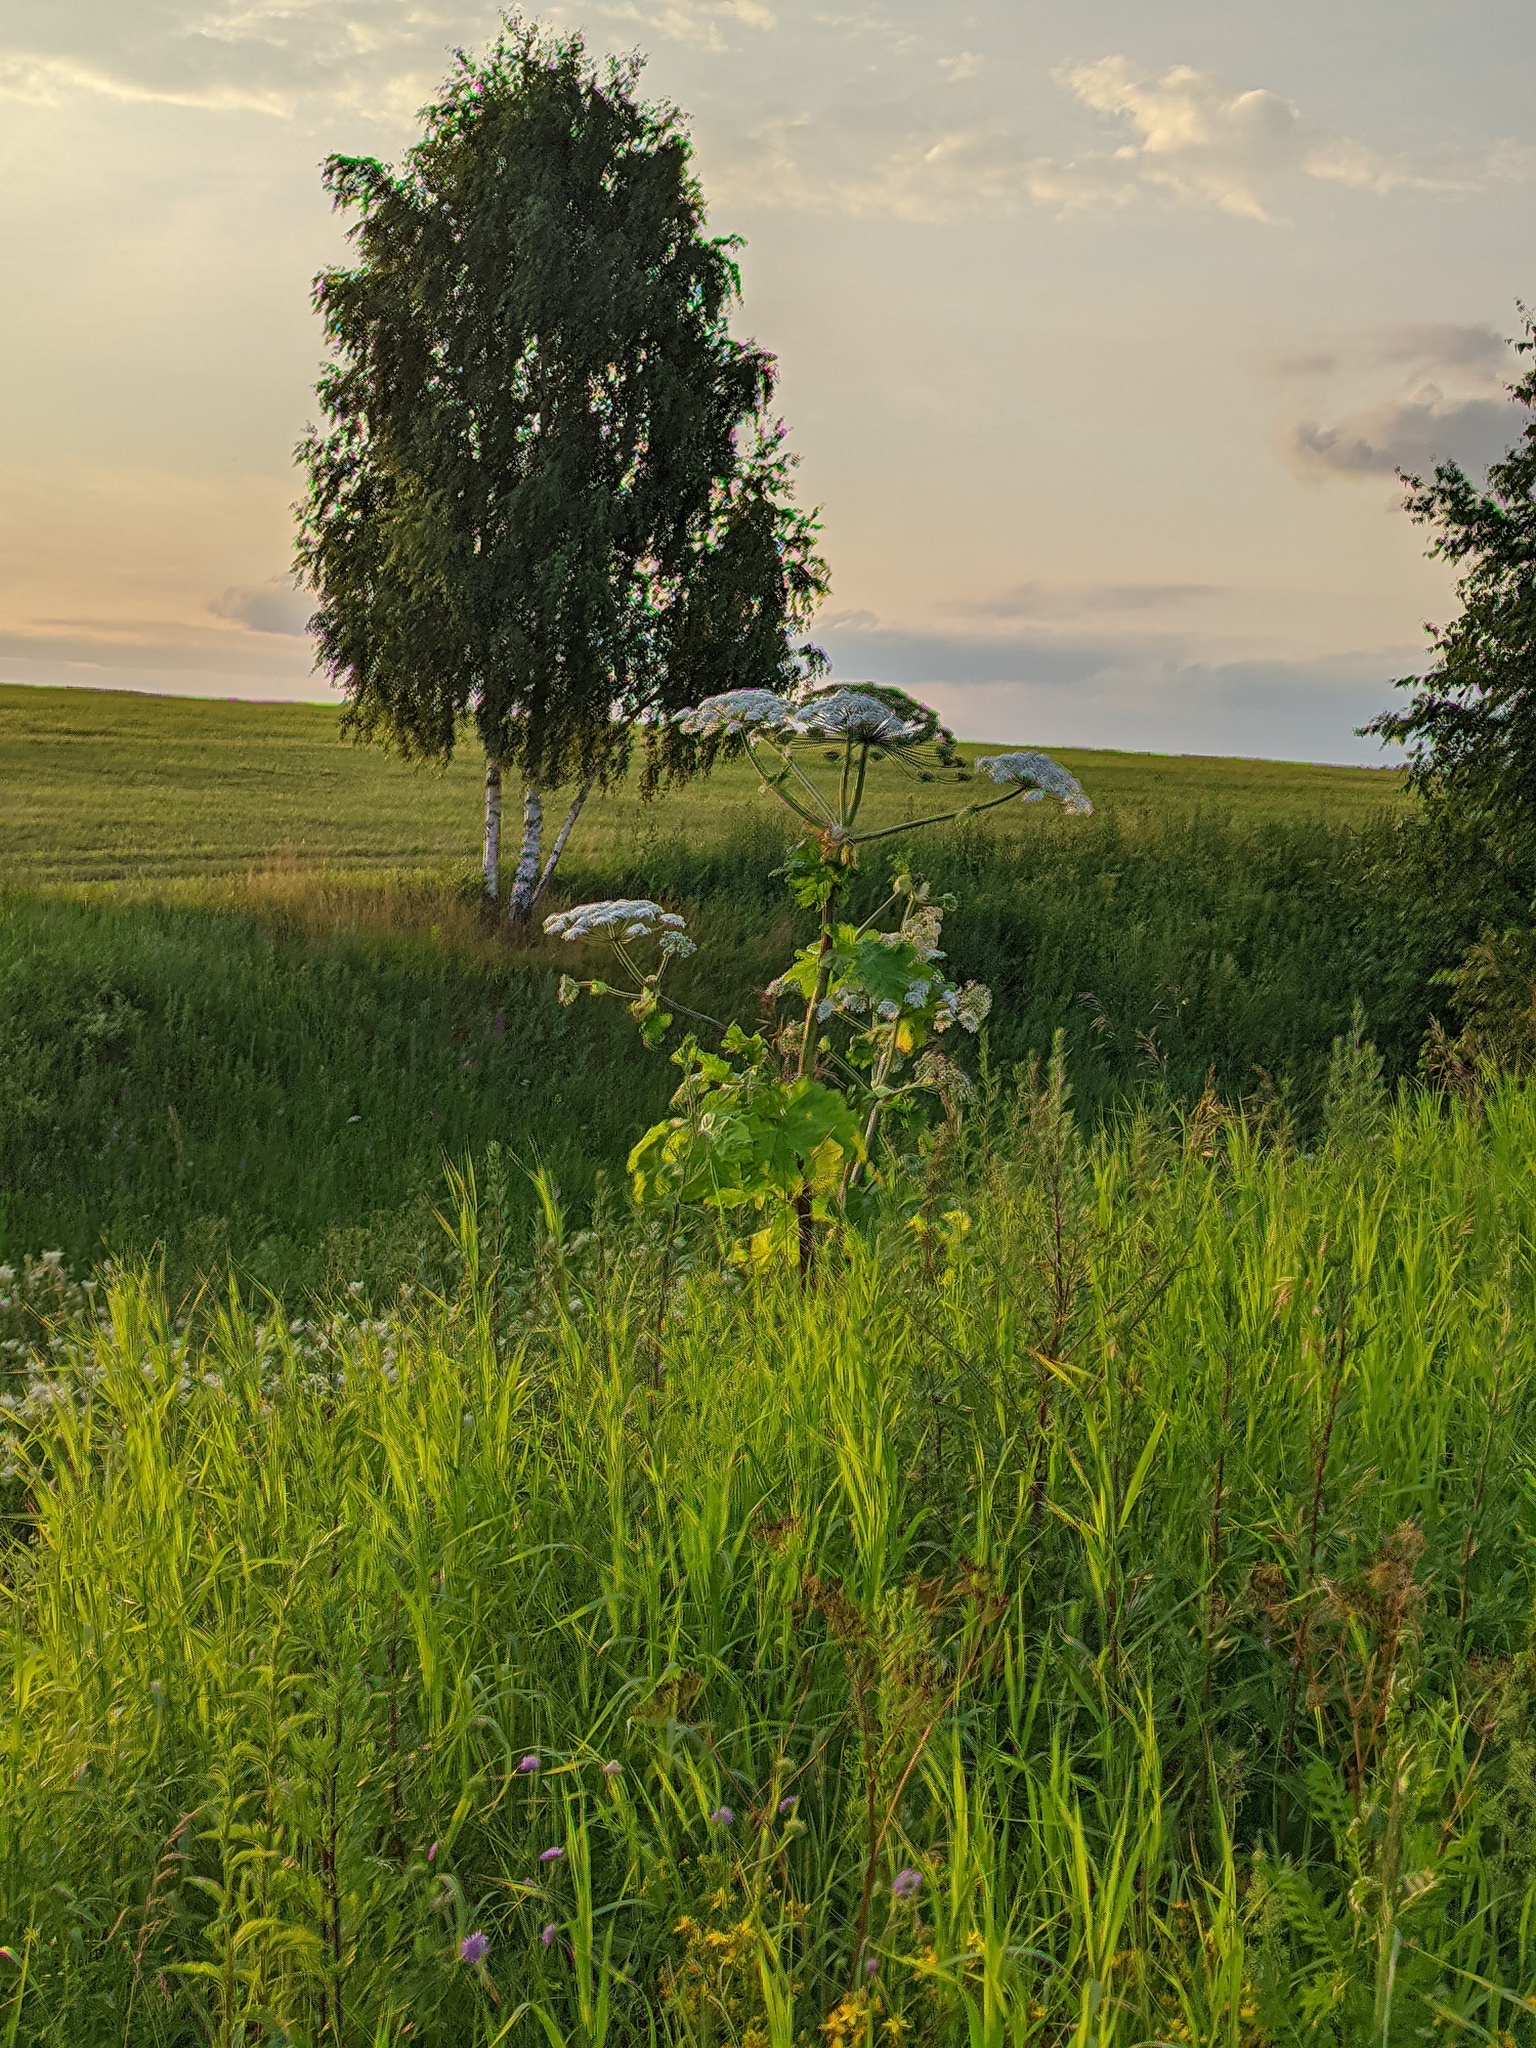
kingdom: Plantae
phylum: Tracheophyta
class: Magnoliopsida
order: Apiales
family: Apiaceae
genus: Heracleum
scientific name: Heracleum sosnowskyi
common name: Sosnowsky's hogweed
